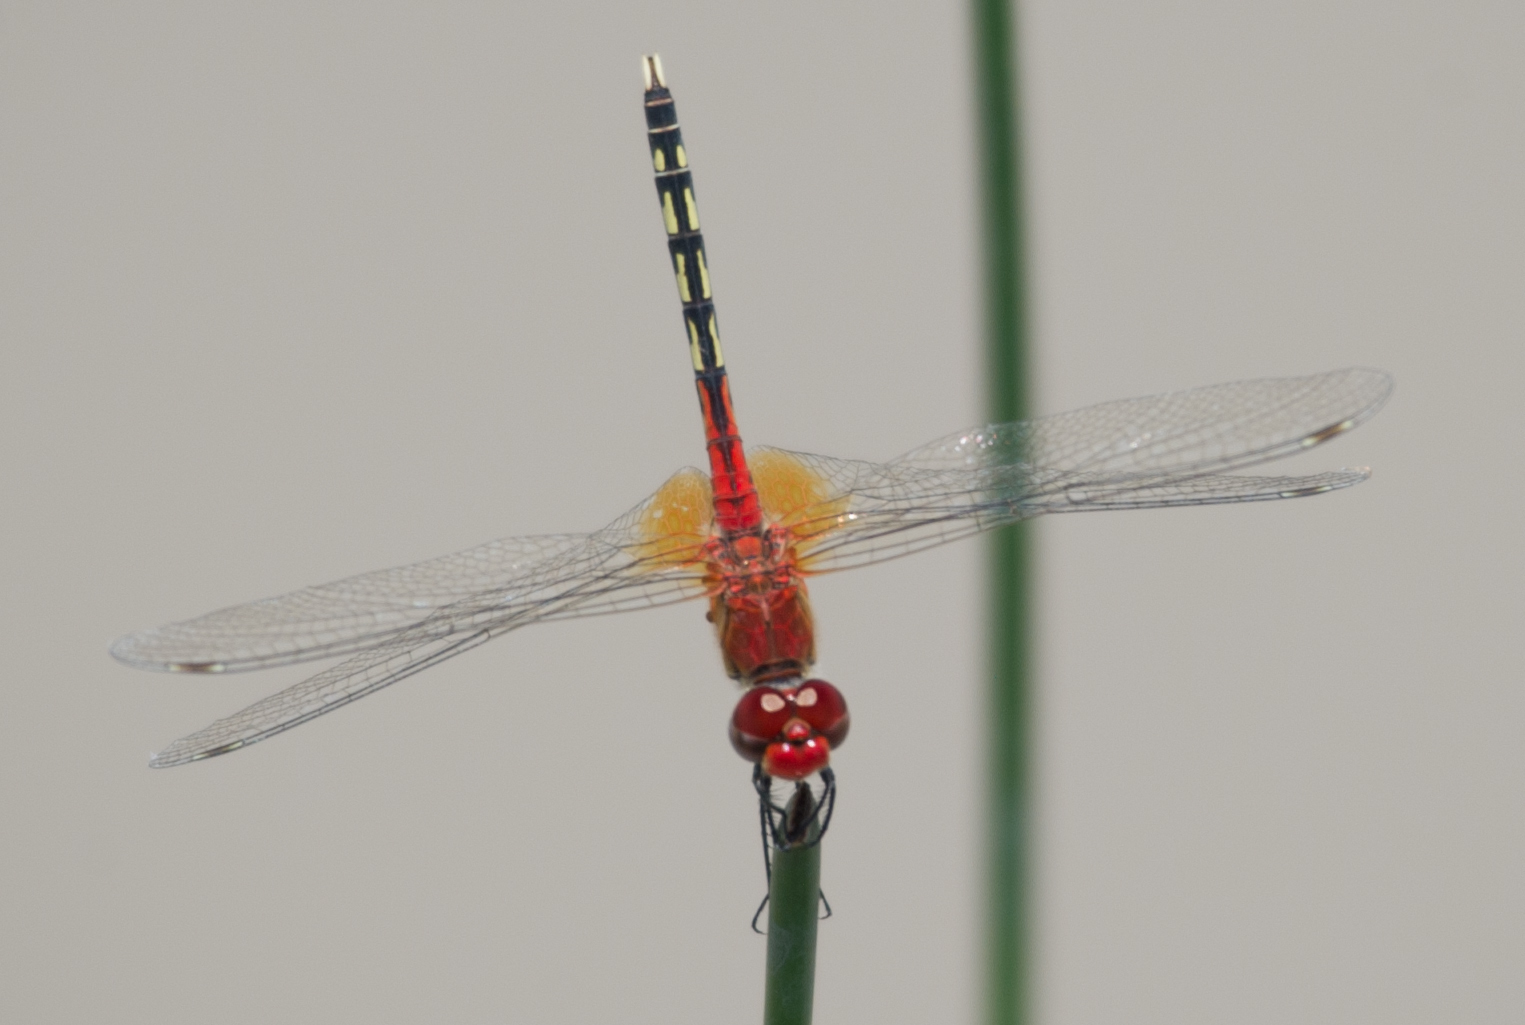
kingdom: Animalia
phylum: Arthropoda
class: Insecta
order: Odonata
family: Libellulidae
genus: Diplacodes
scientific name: Diplacodes luminans
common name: Barbet percher
